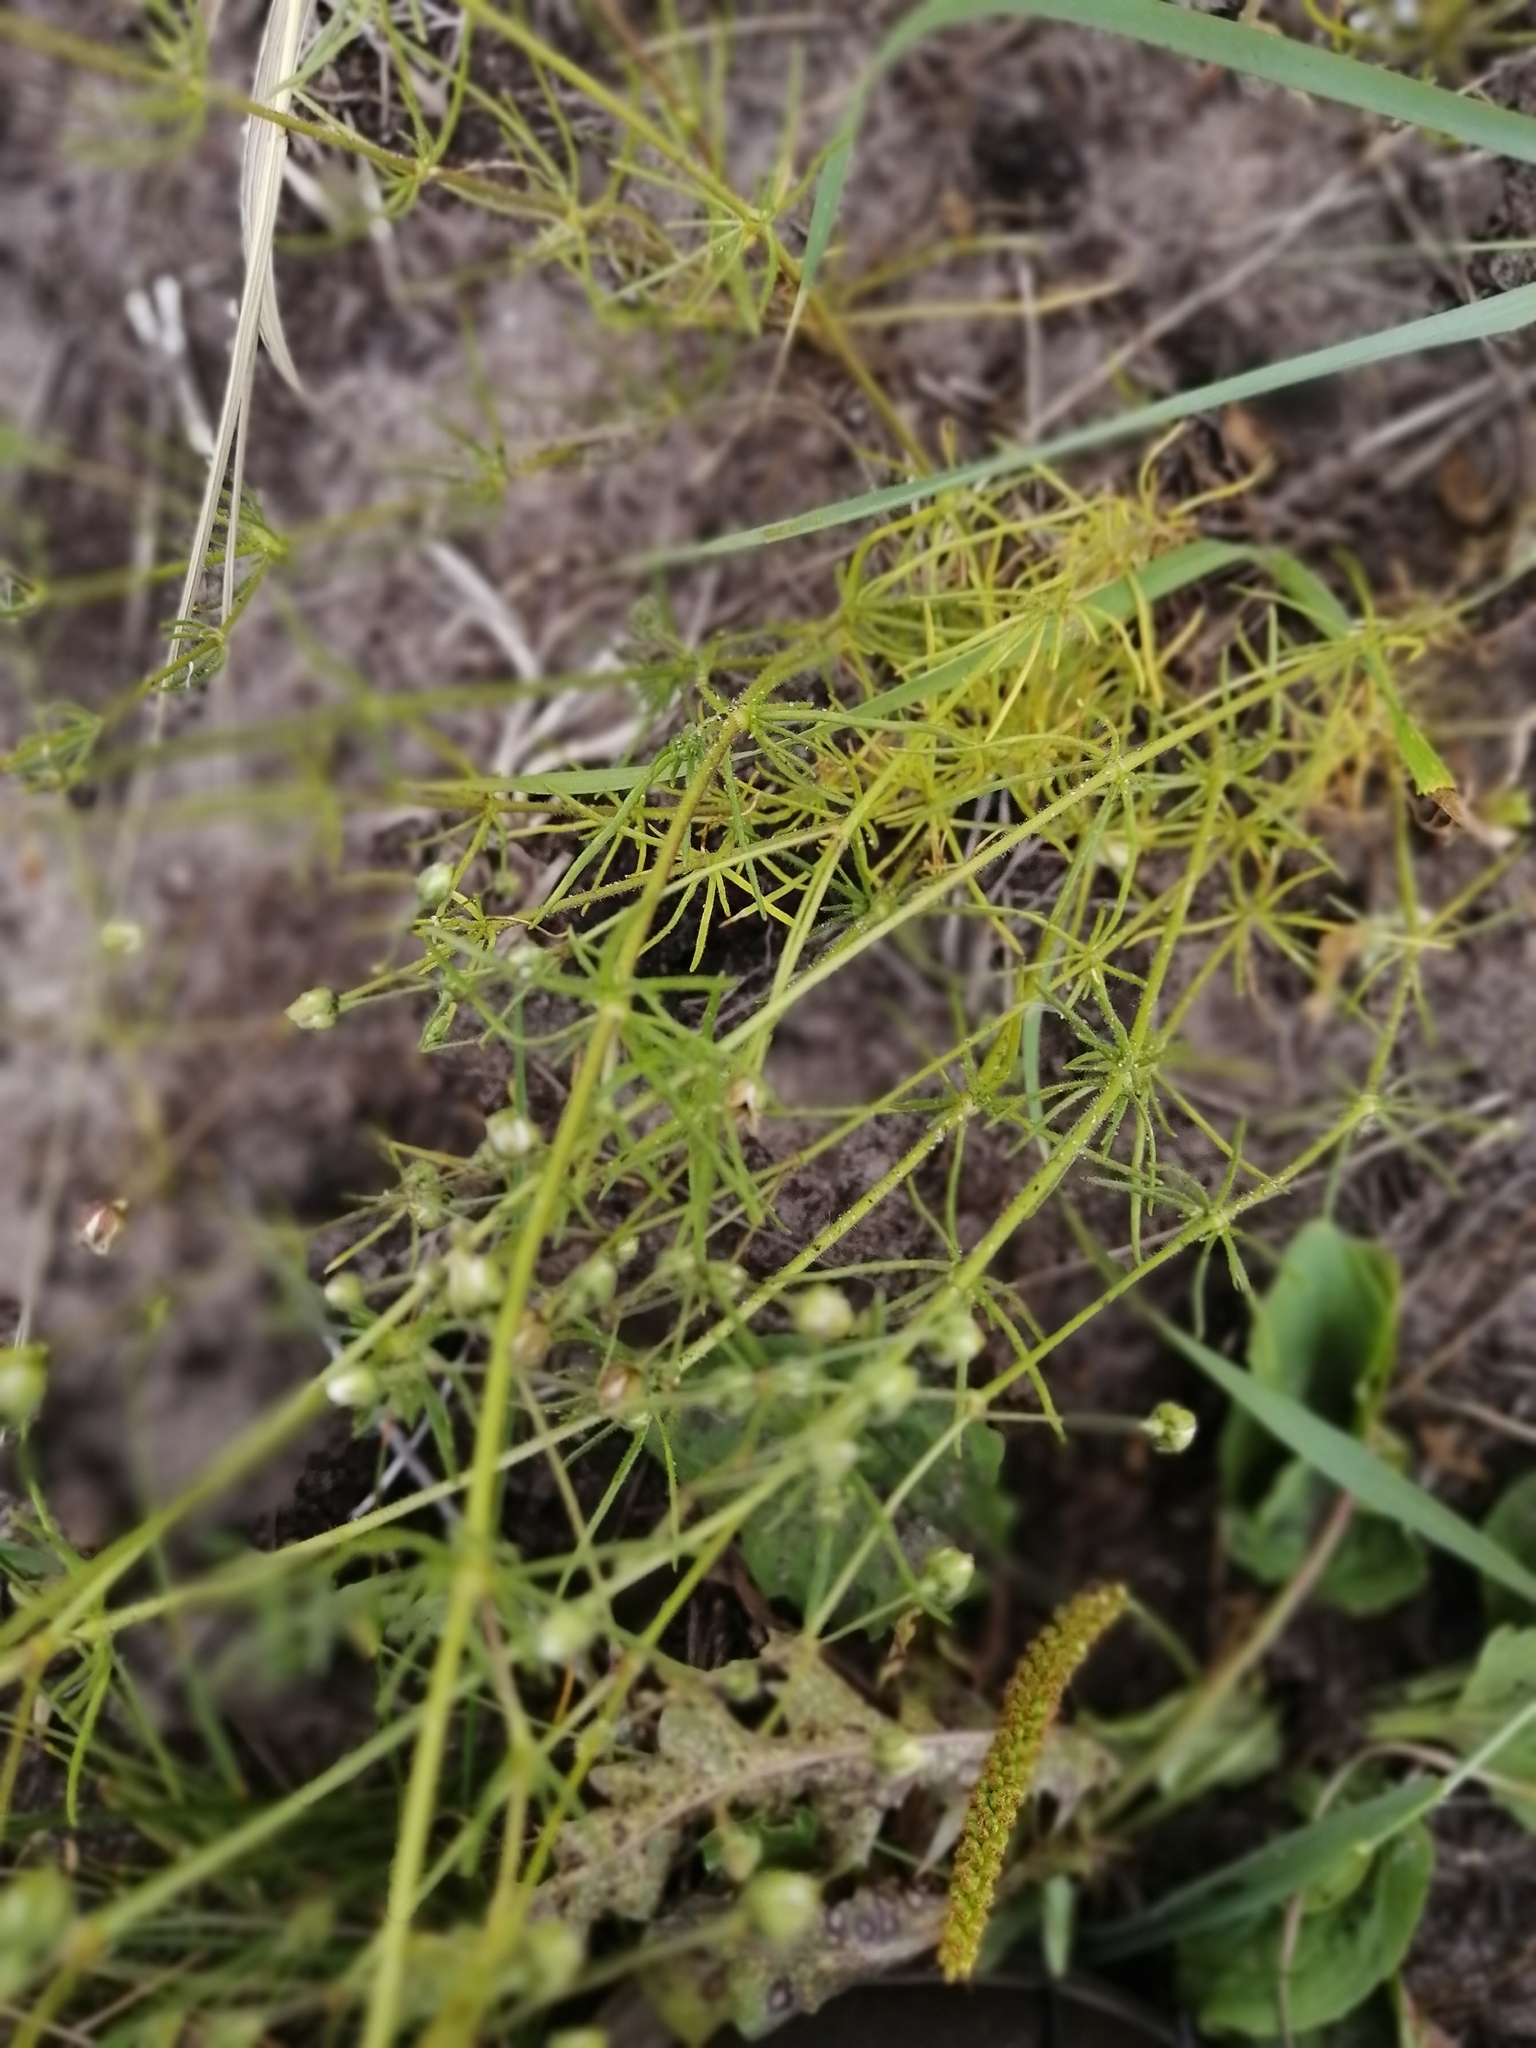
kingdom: Plantae
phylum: Tracheophyta
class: Magnoliopsida
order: Caryophyllales
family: Caryophyllaceae
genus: Spergula
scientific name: Spergula arvensis
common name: Corn spurrey
